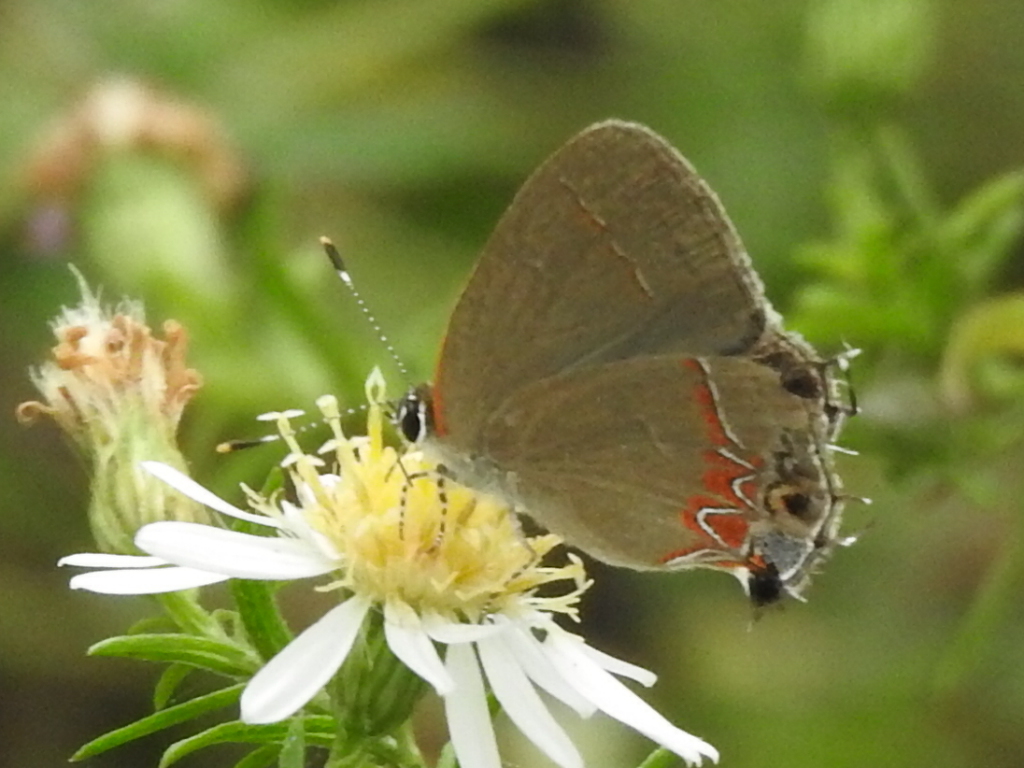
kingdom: Animalia
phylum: Arthropoda
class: Insecta
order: Lepidoptera
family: Lycaenidae
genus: Calycopis
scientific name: Calycopis isobeon
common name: Dusky-blue groundstreak
